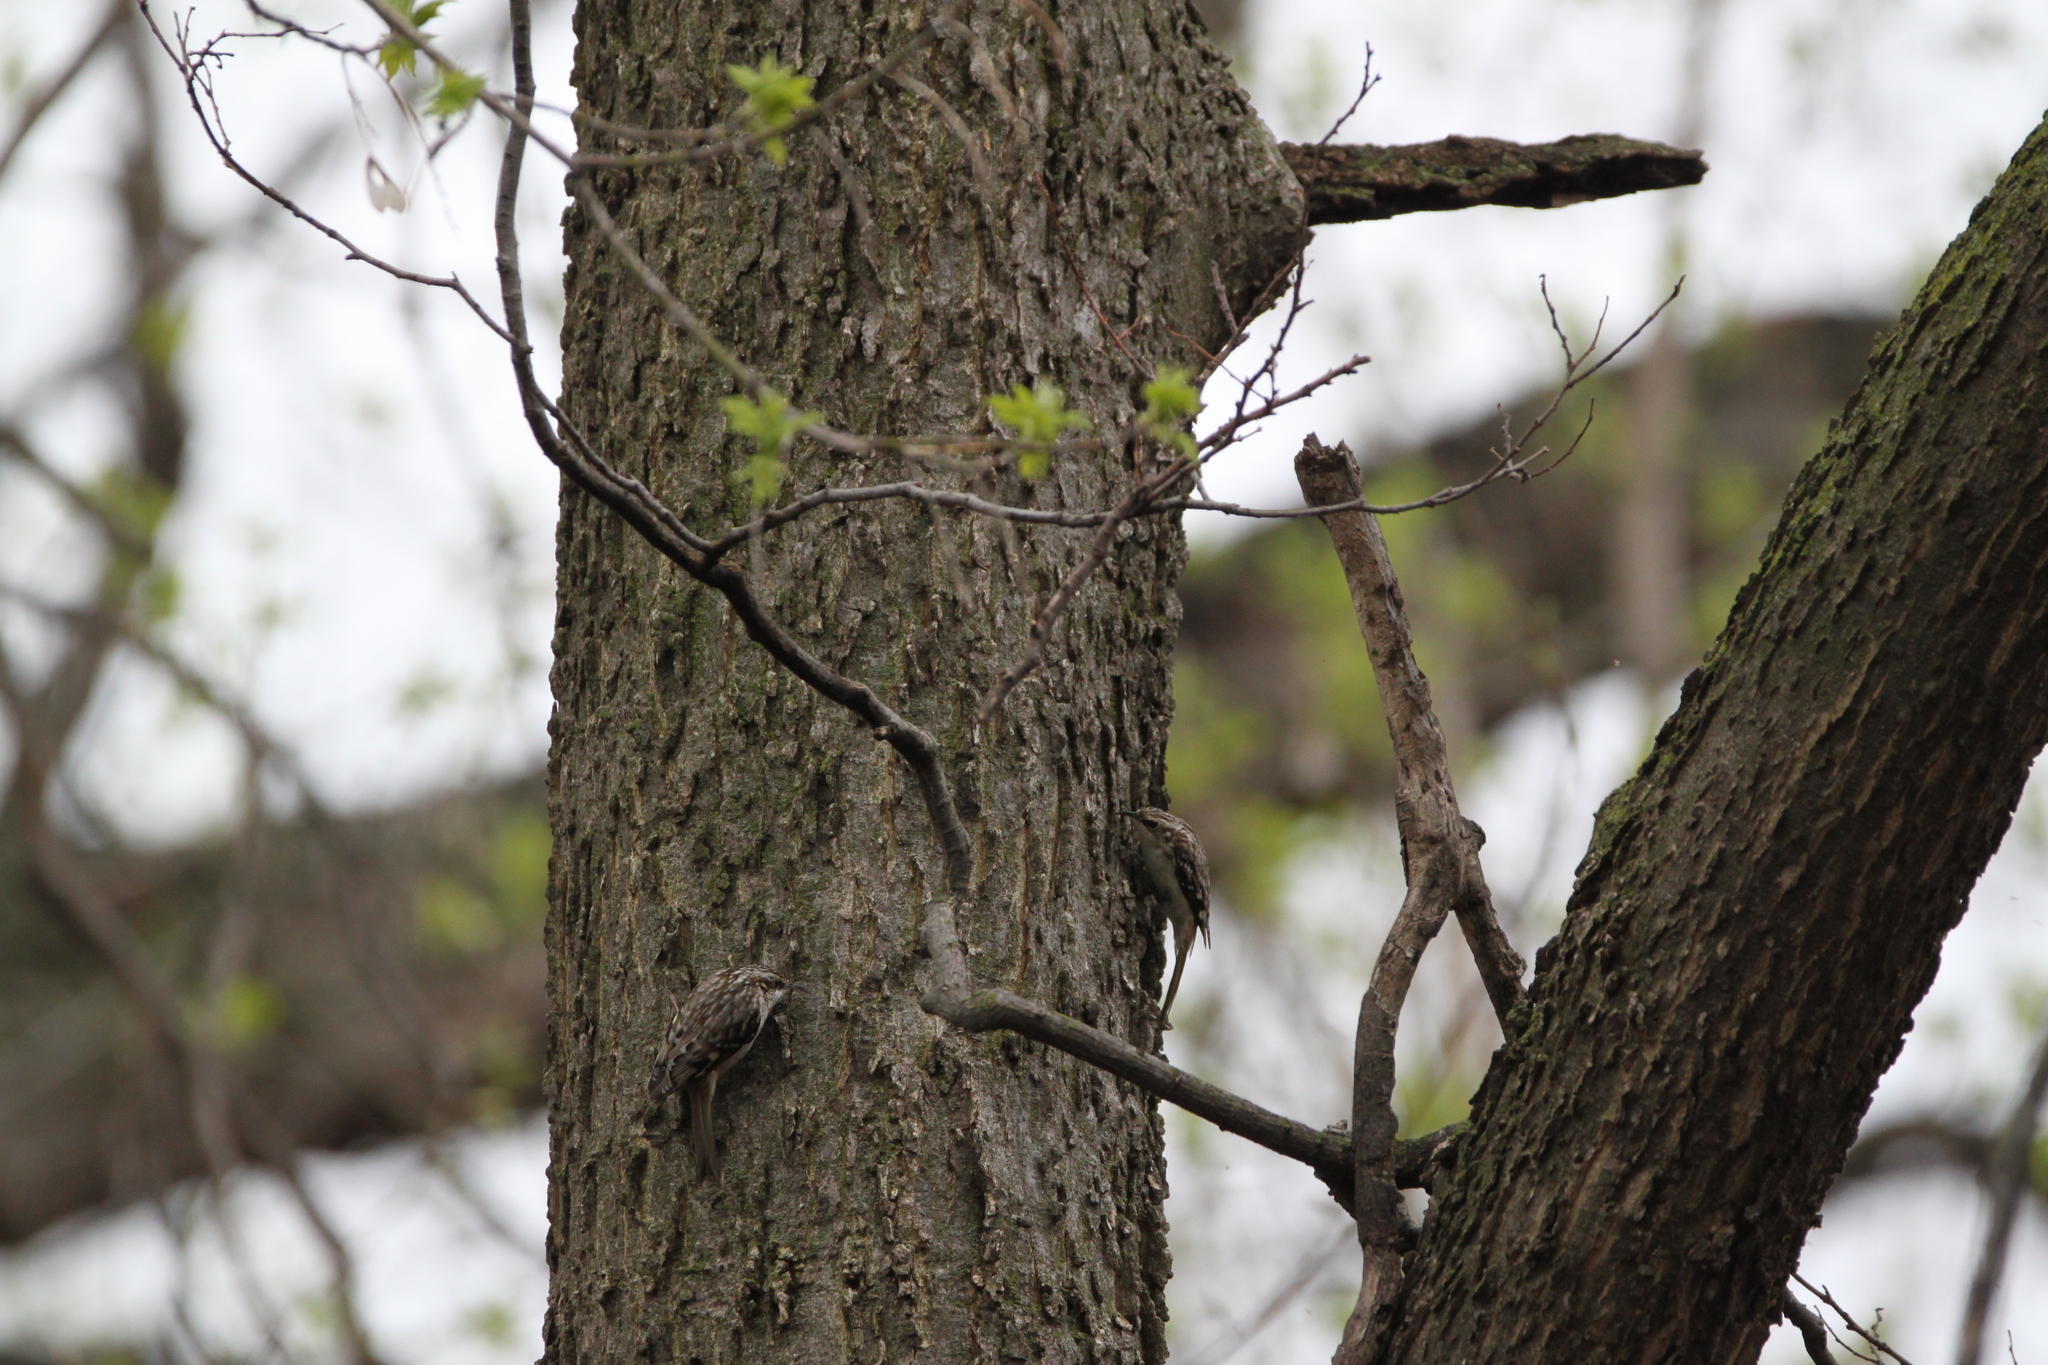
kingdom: Animalia
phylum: Chordata
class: Aves
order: Passeriformes
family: Certhiidae
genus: Certhia
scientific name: Certhia americana
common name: Brown creeper
